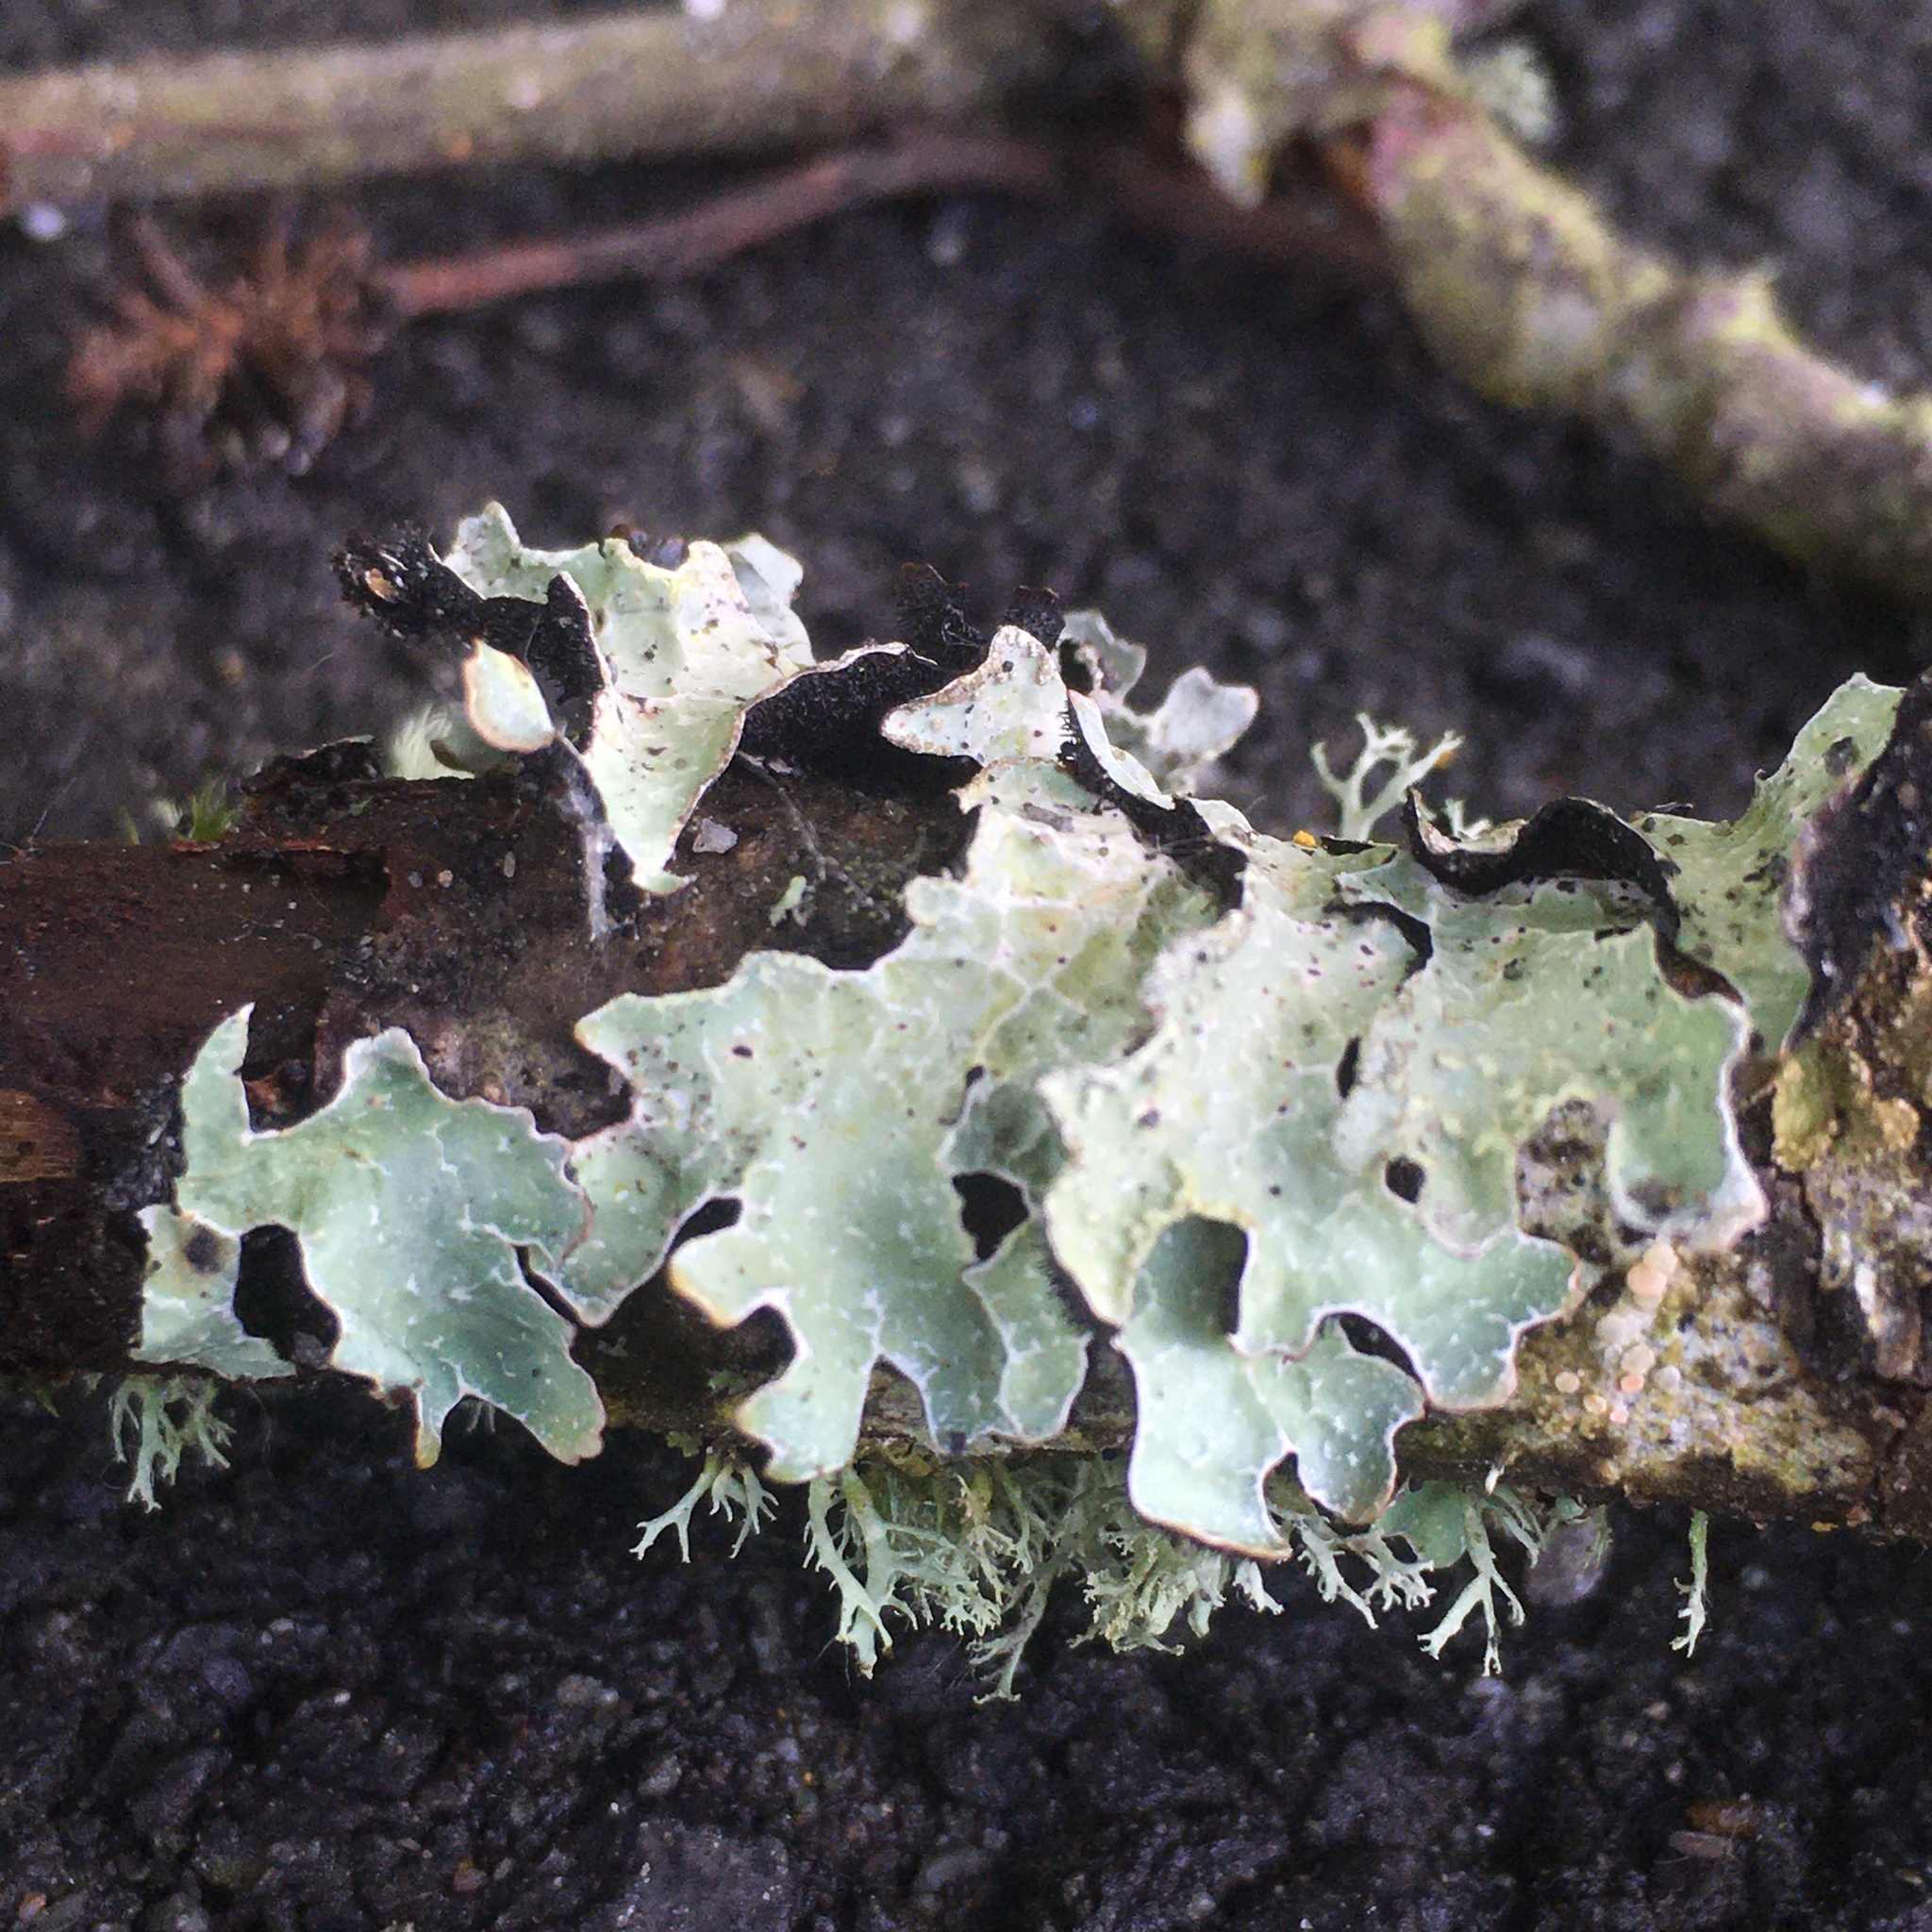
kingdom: Fungi
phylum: Ascomycota
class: Lecanoromycetes
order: Lecanorales
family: Parmeliaceae
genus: Parmelia
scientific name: Parmelia sulcata
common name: Netted shield lichen
